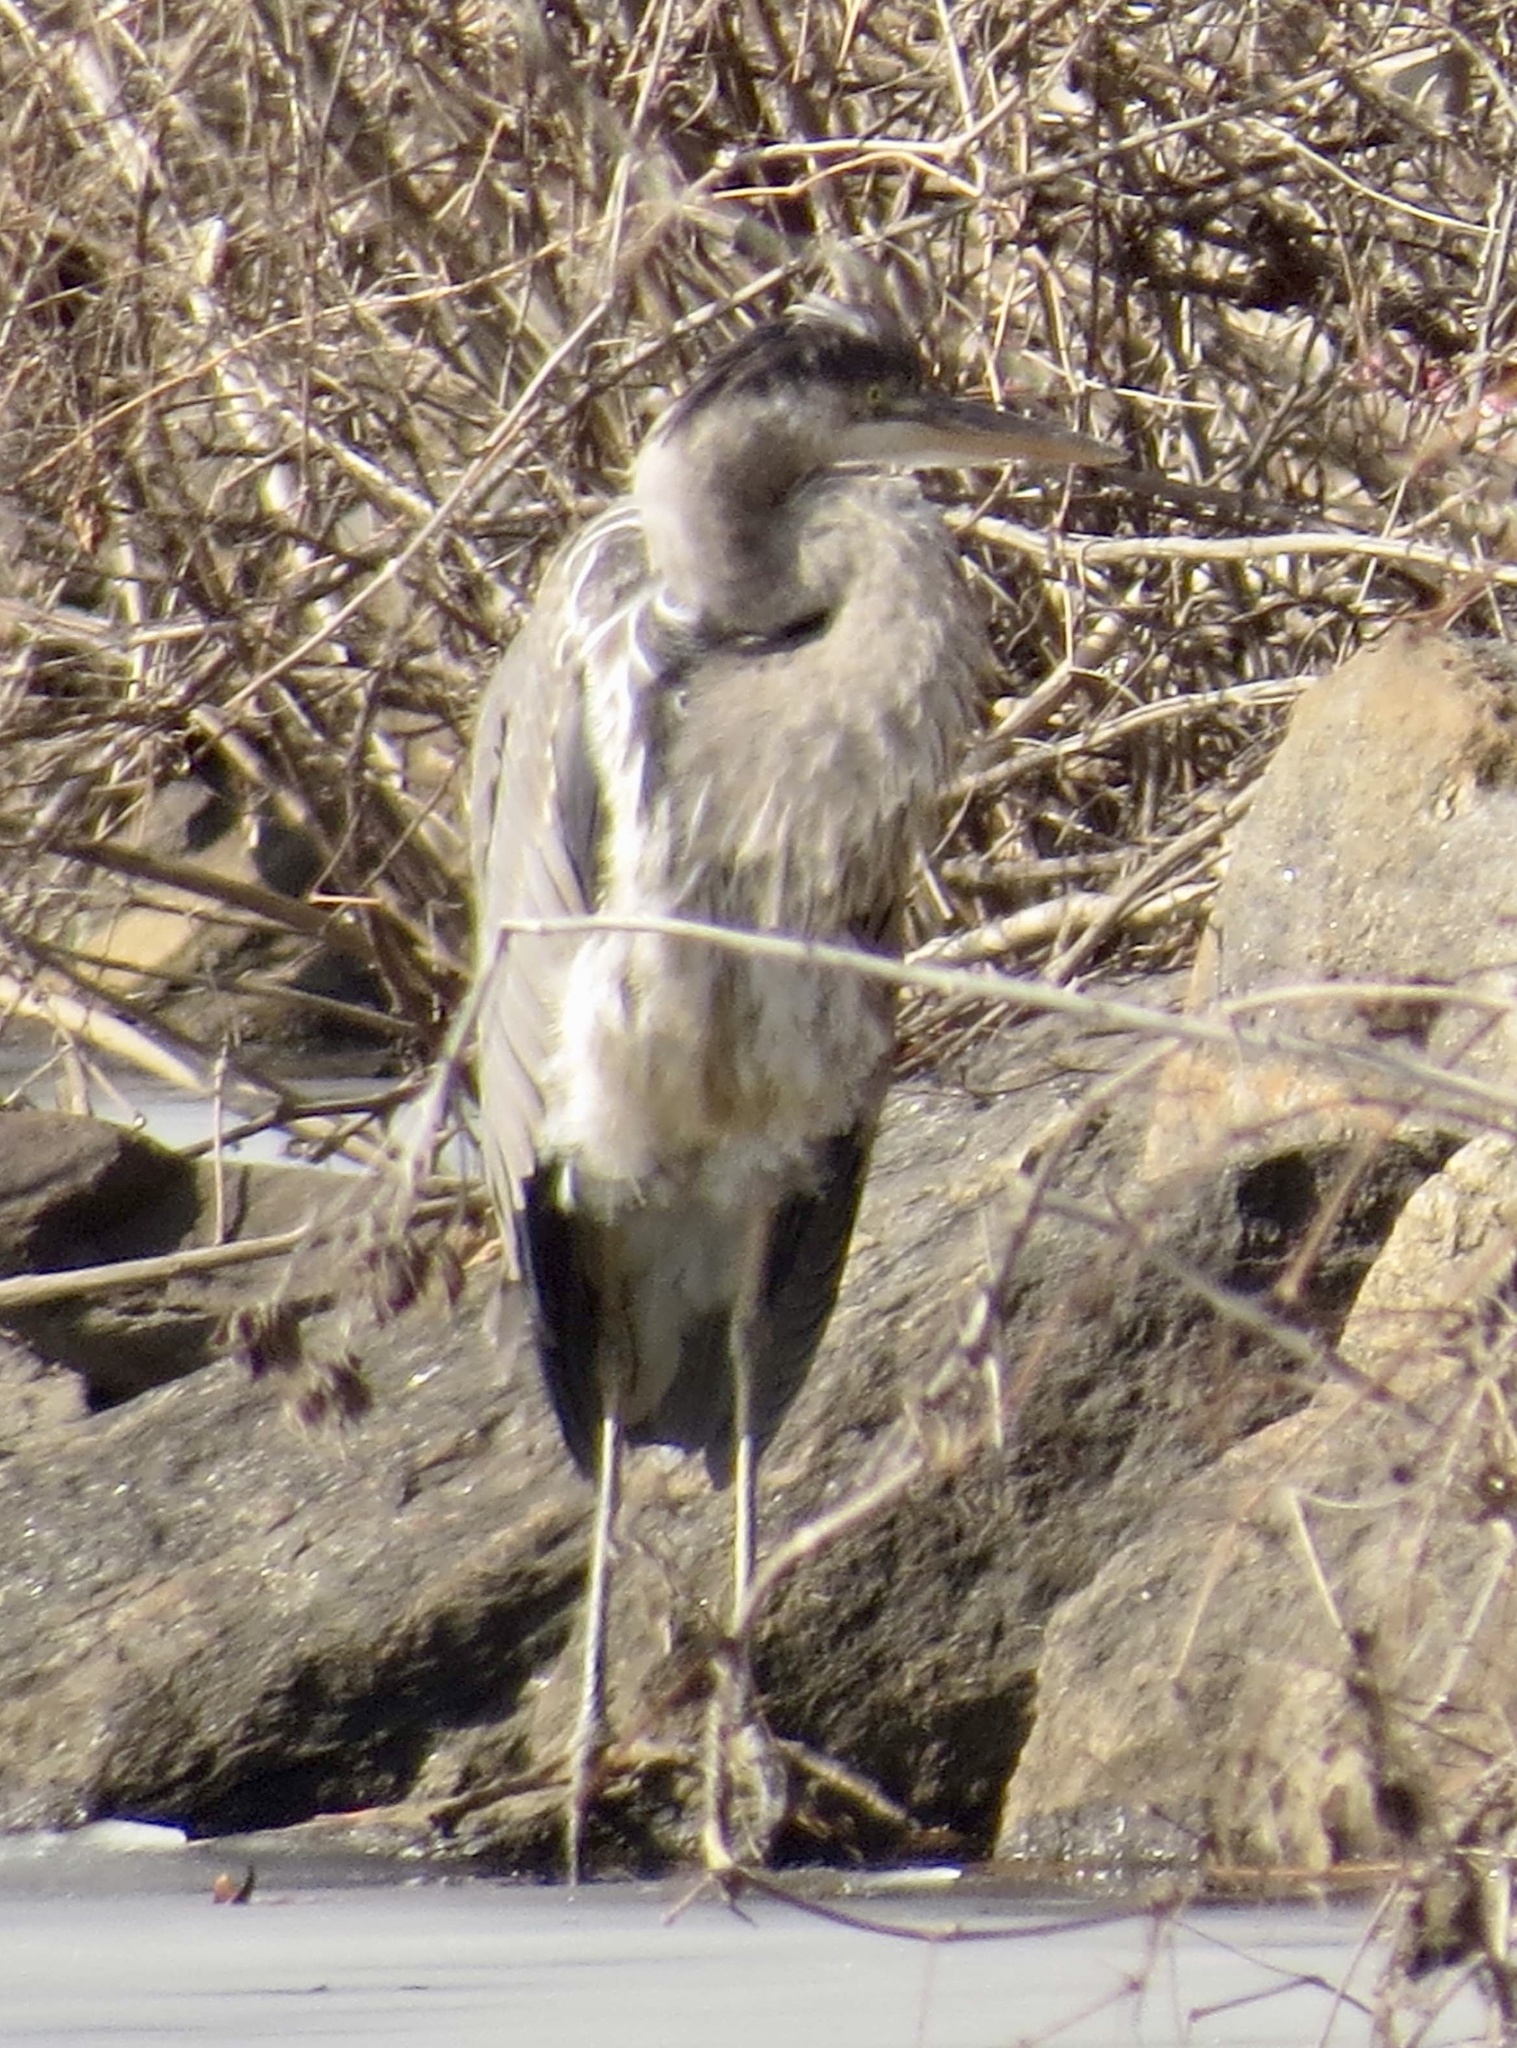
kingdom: Animalia
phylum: Chordata
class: Aves
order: Pelecaniformes
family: Ardeidae
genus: Ardea
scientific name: Ardea herodias
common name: Great blue heron
